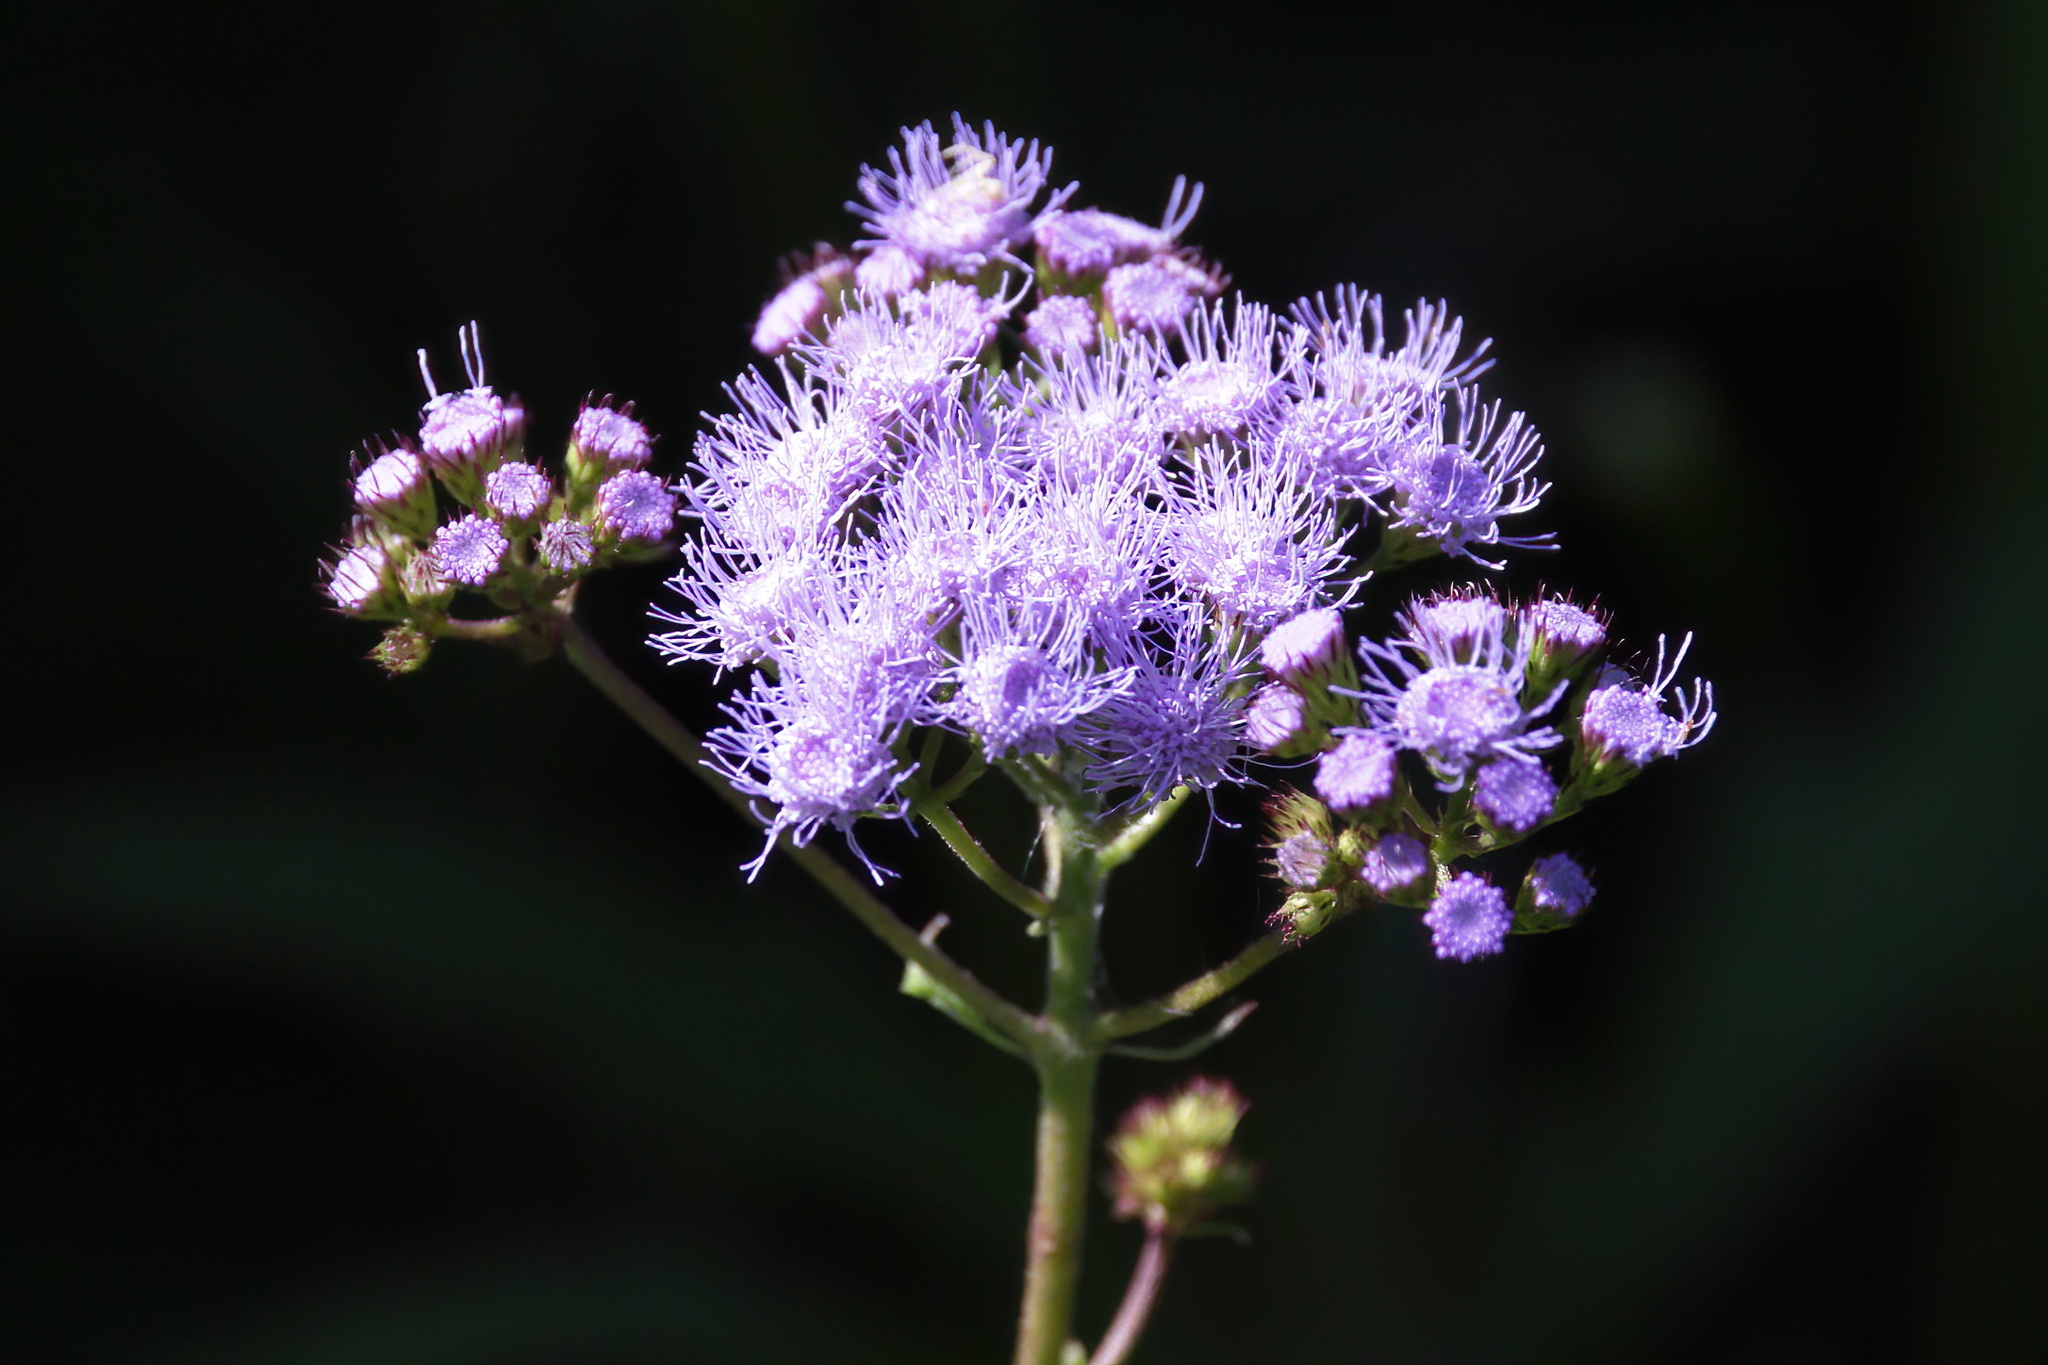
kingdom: Plantae
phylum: Tracheophyta
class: Magnoliopsida
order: Asterales
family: Asteraceae
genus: Conoclinium
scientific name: Conoclinium coelestinum
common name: Blue mistflower
